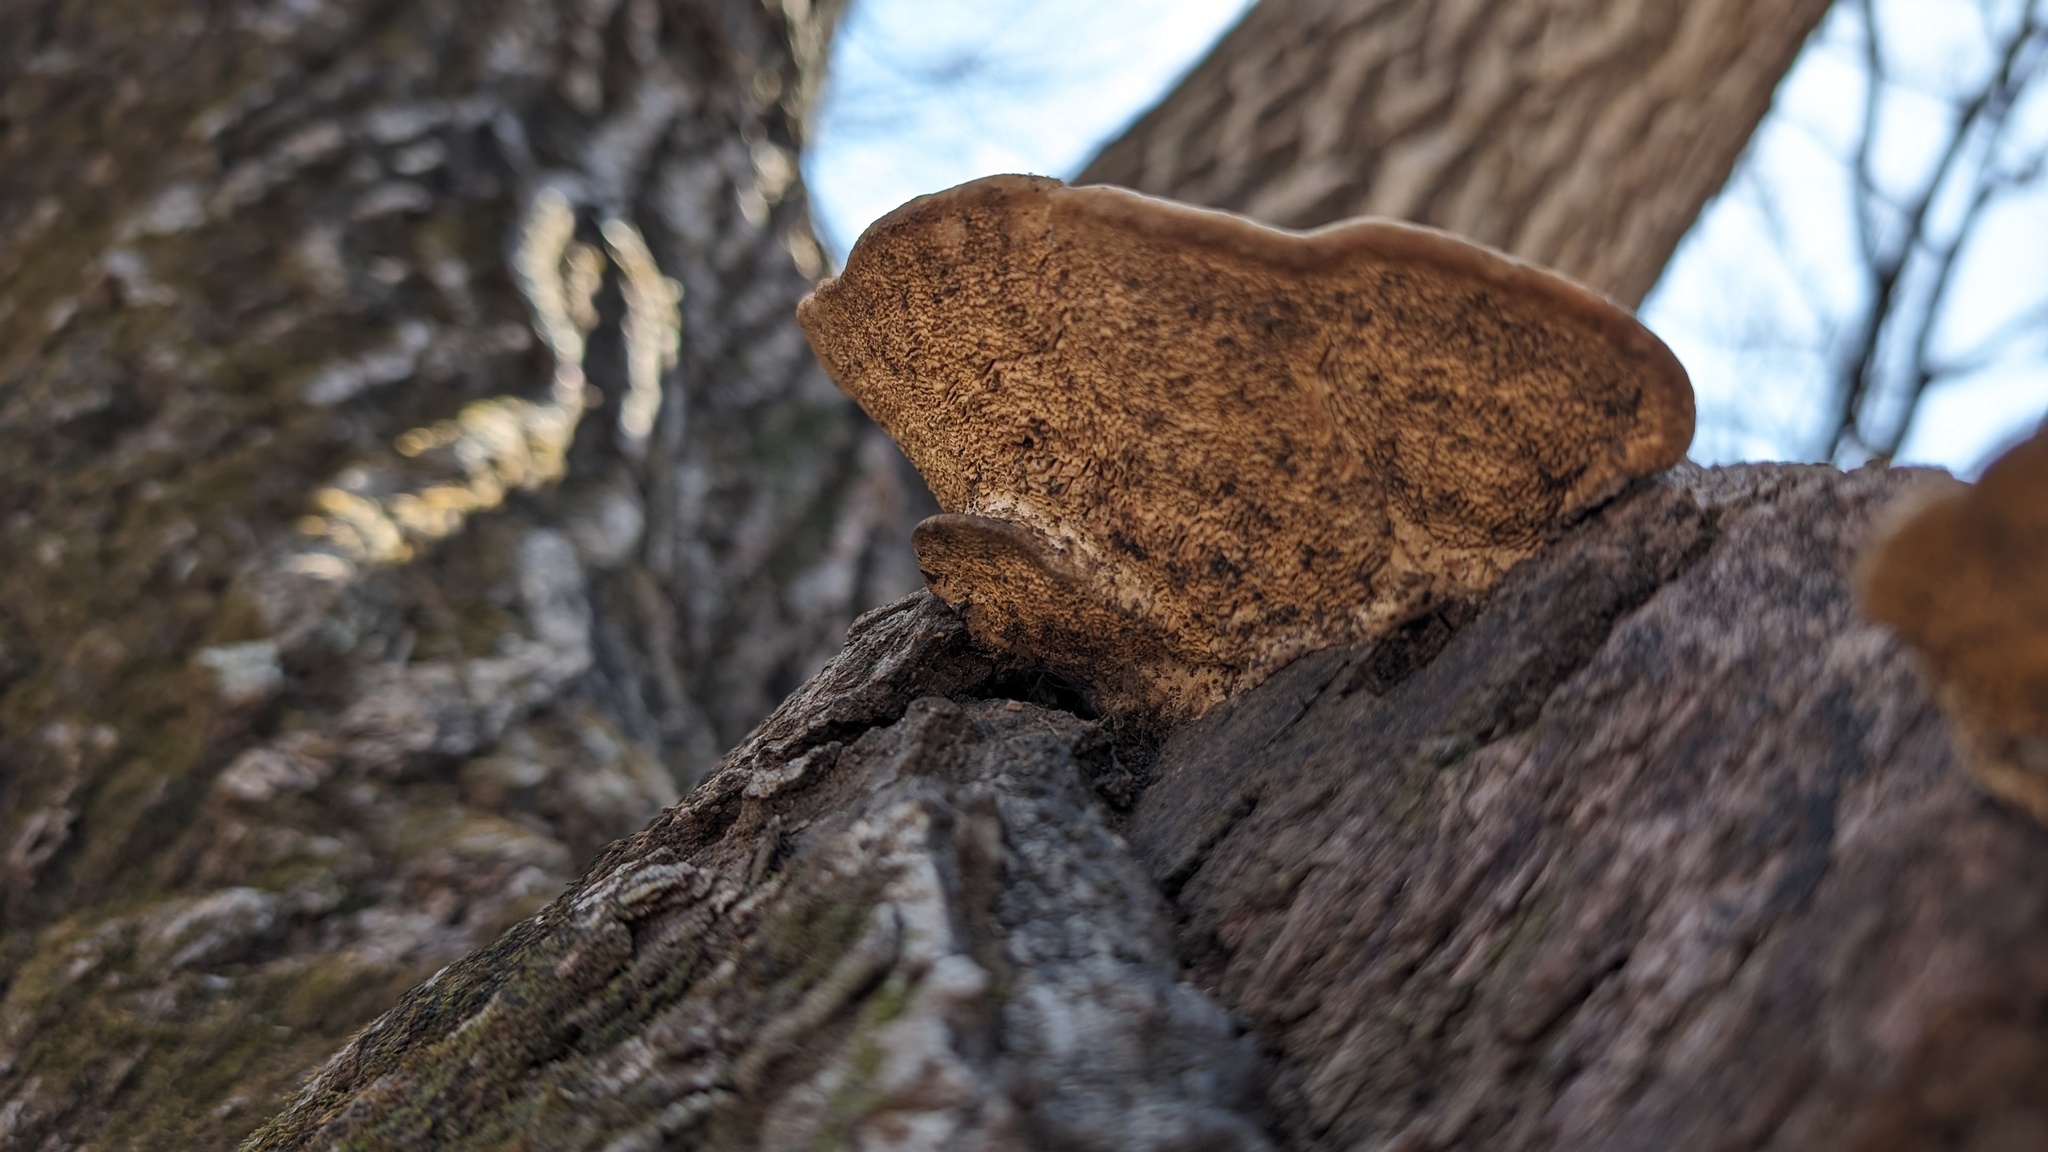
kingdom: Fungi
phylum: Basidiomycota
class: Agaricomycetes
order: Polyporales
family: Fomitopsidaceae
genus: Fomitopsis
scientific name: Fomitopsis
